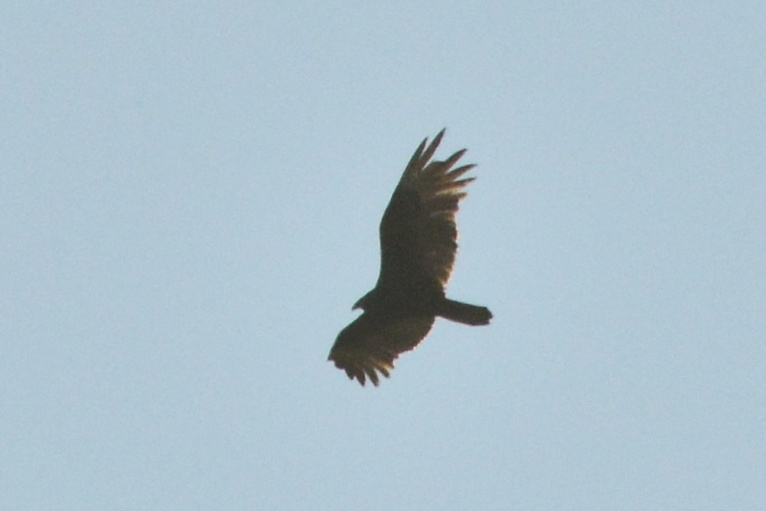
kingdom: Animalia
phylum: Chordata
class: Aves
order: Accipitriformes
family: Cathartidae
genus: Cathartes
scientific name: Cathartes aura
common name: Turkey vulture
